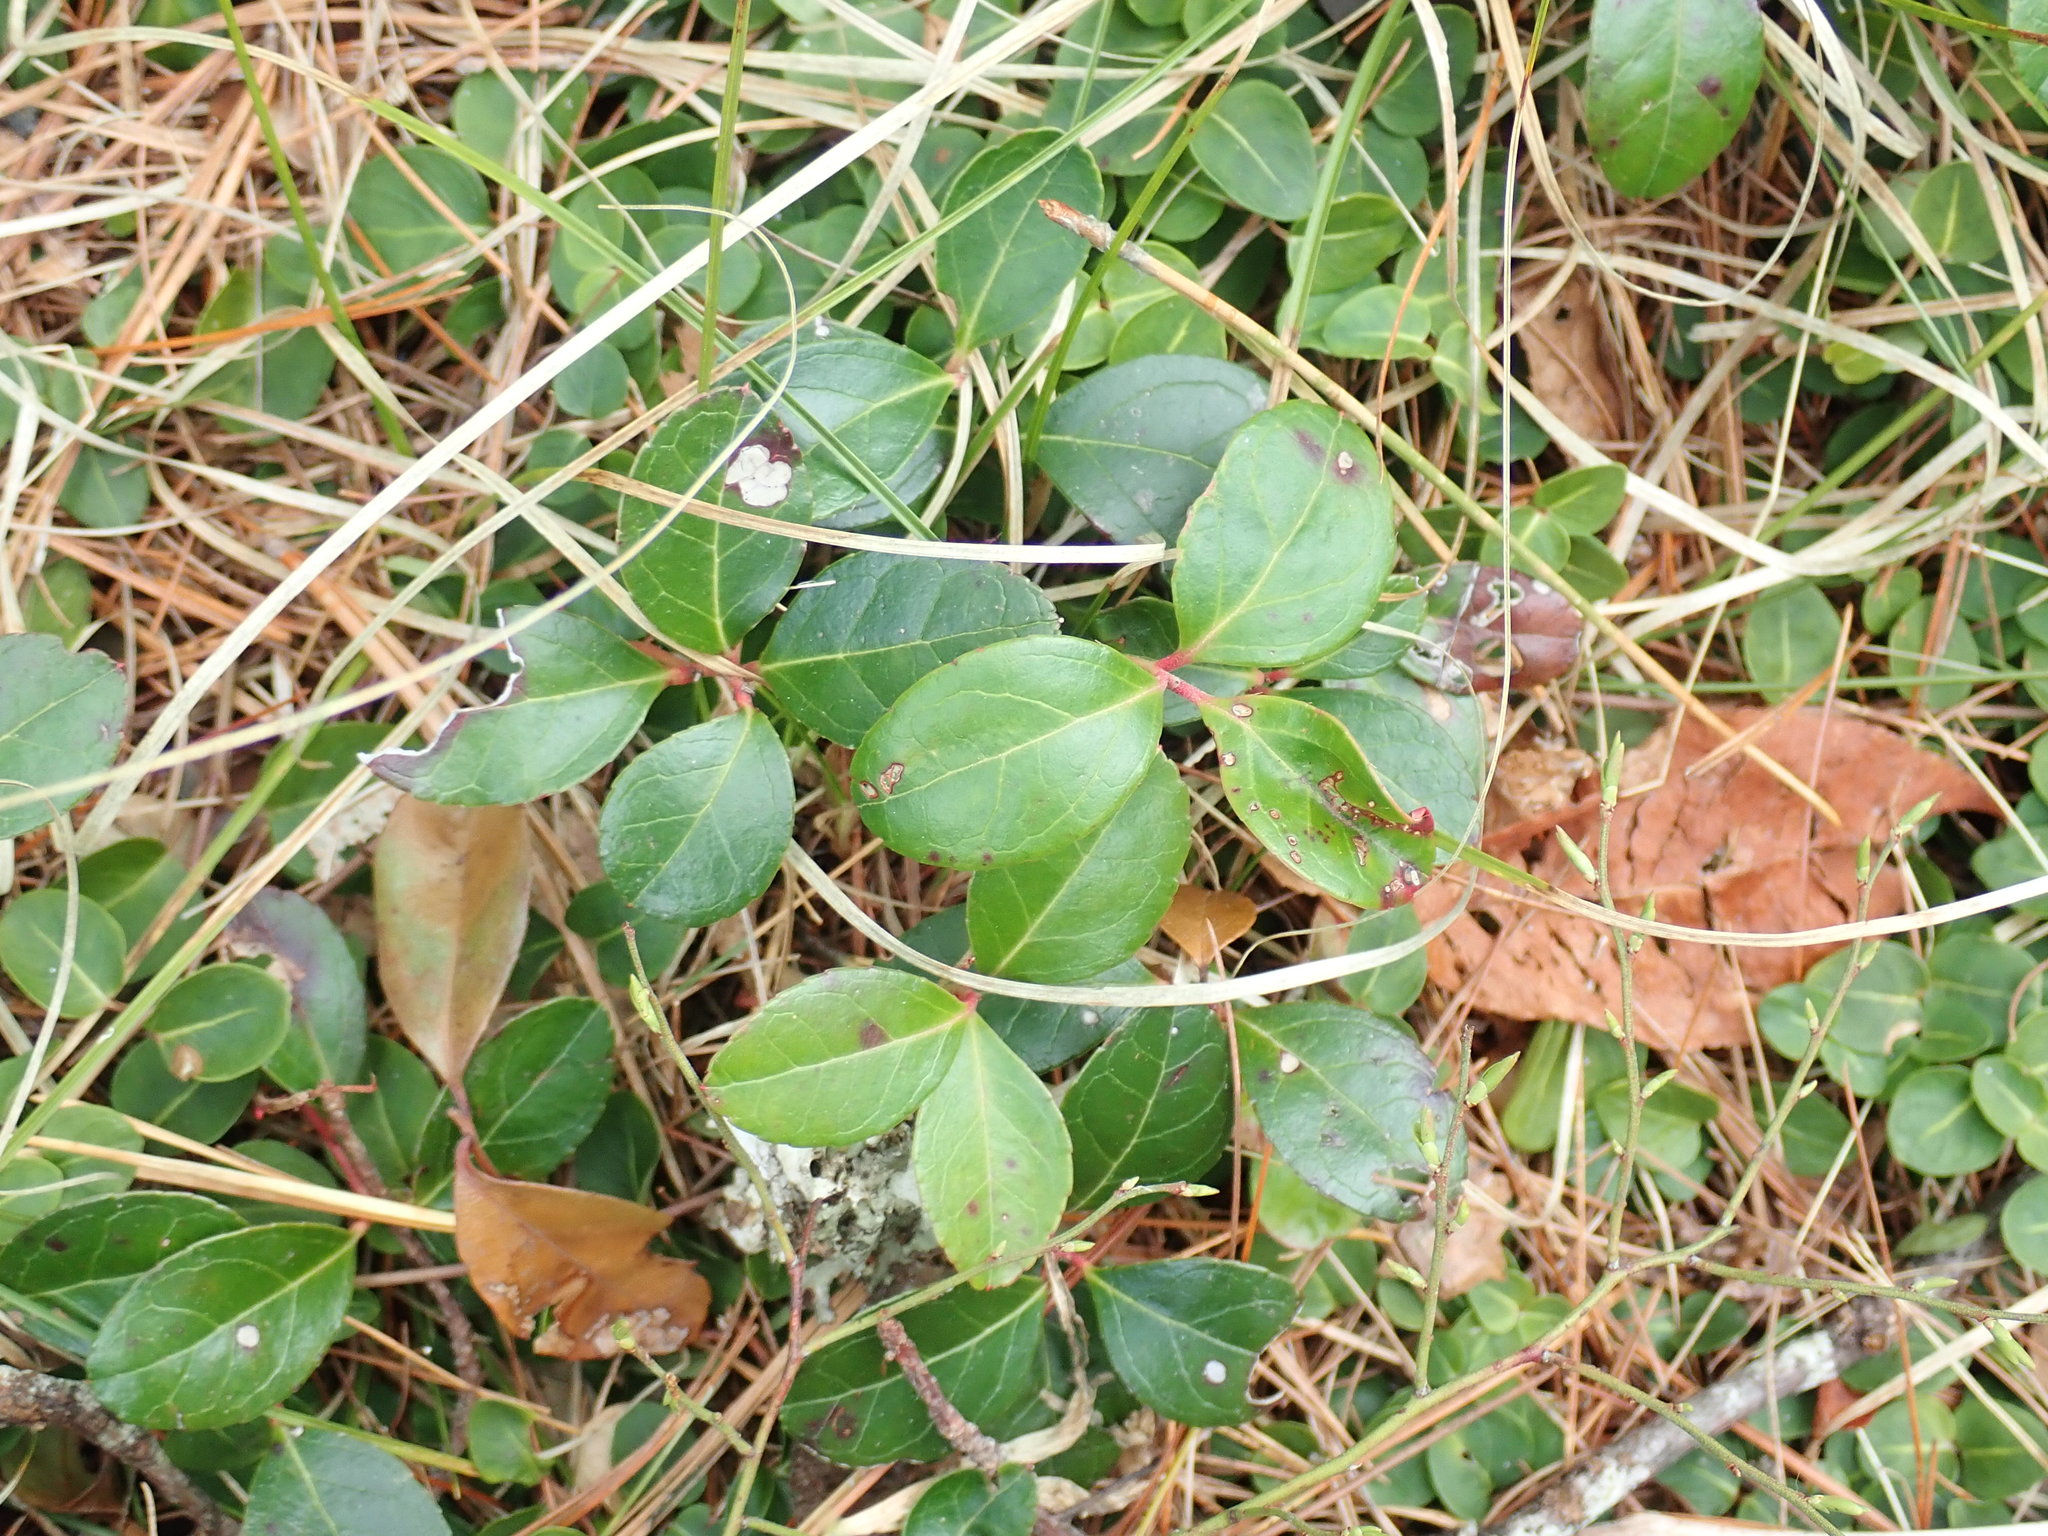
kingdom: Plantae
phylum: Tracheophyta
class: Magnoliopsida
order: Ericales
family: Ericaceae
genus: Gaultheria
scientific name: Gaultheria procumbens
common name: Checkerberry
